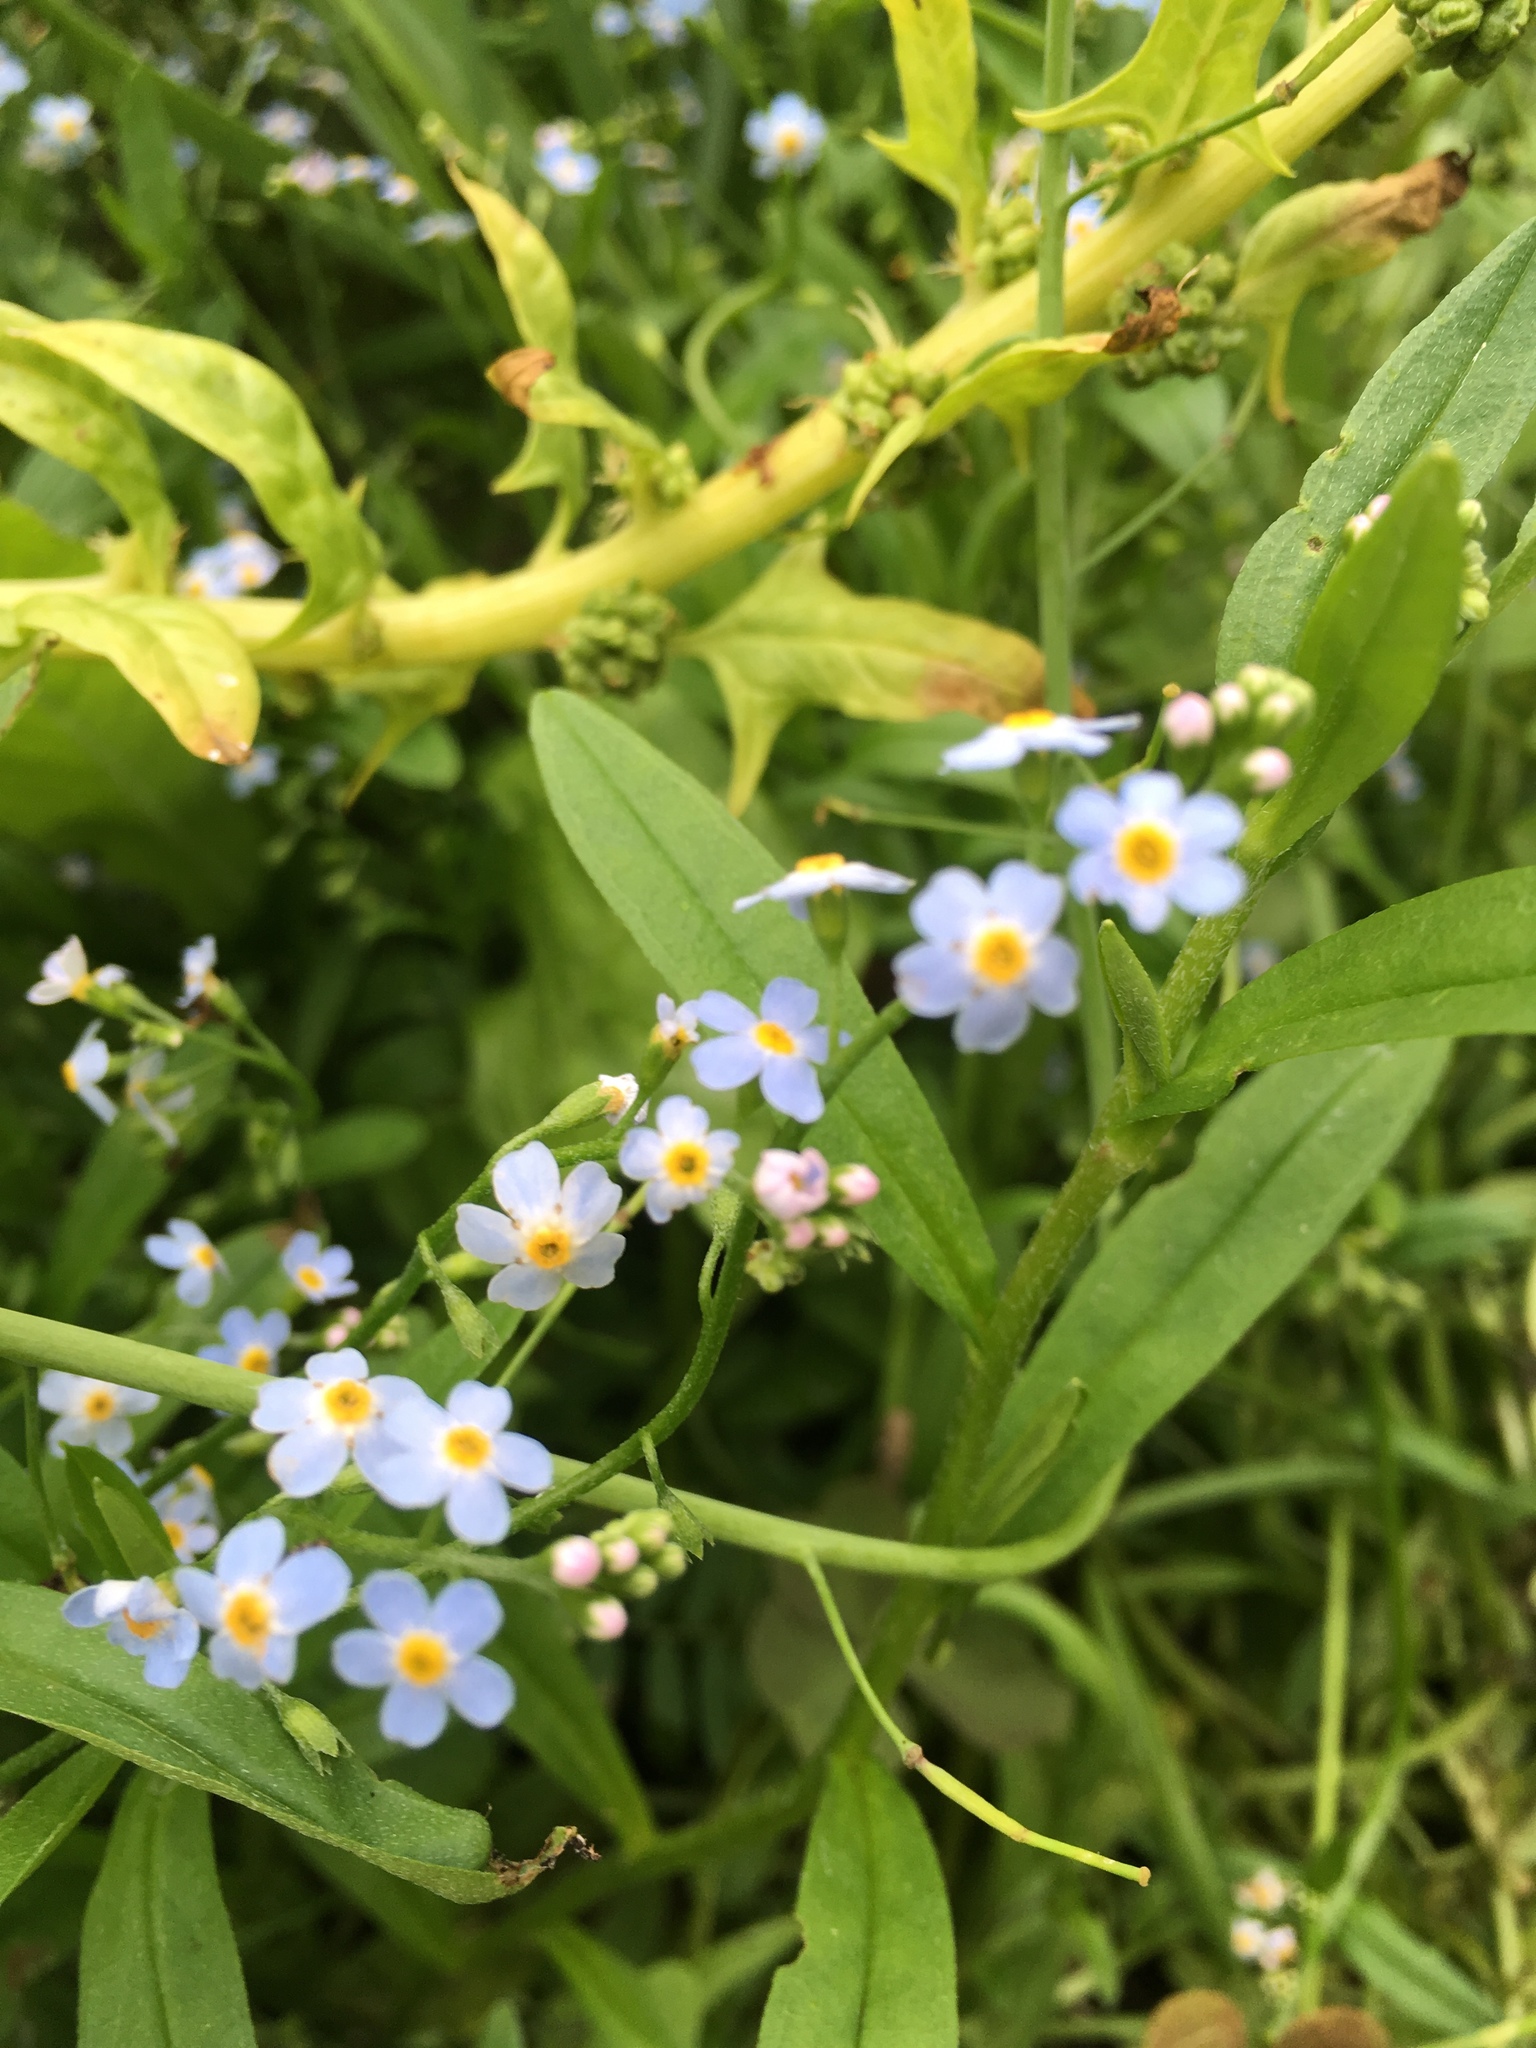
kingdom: Plantae
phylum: Tracheophyta
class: Magnoliopsida
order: Boraginales
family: Boraginaceae
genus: Myosotis
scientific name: Myosotis scorpioides
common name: Water forget-me-not
